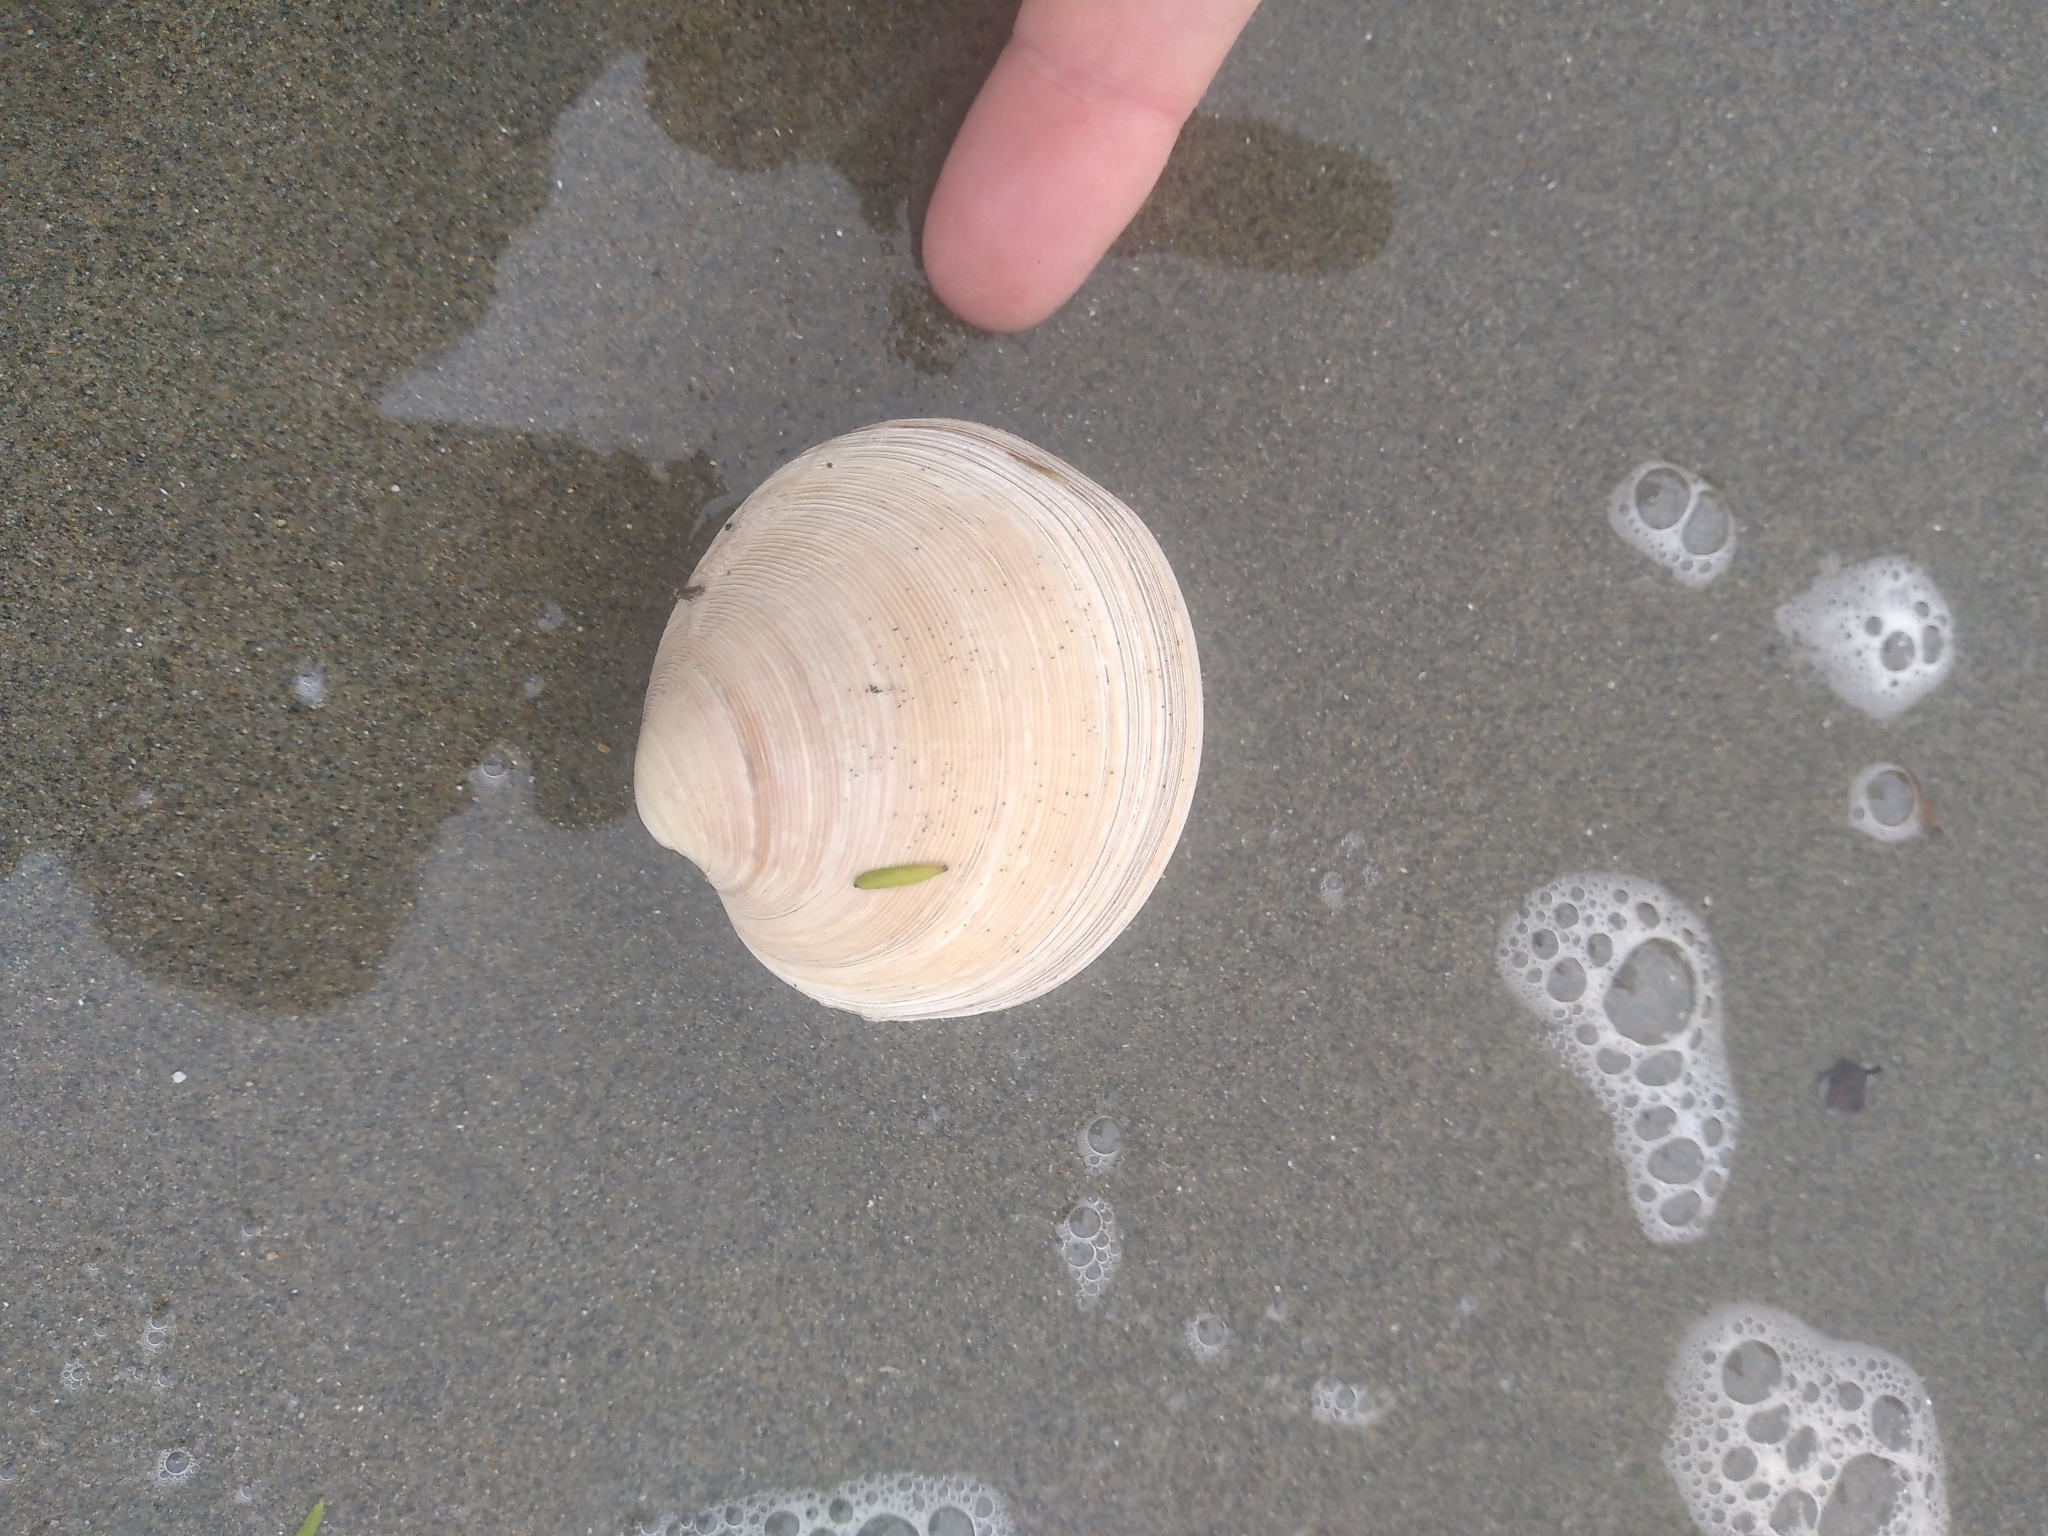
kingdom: Animalia
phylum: Mollusca
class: Bivalvia
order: Venerida
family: Veneridae
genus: Dosinia
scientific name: Dosinia anus
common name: Old-woman dosinia
